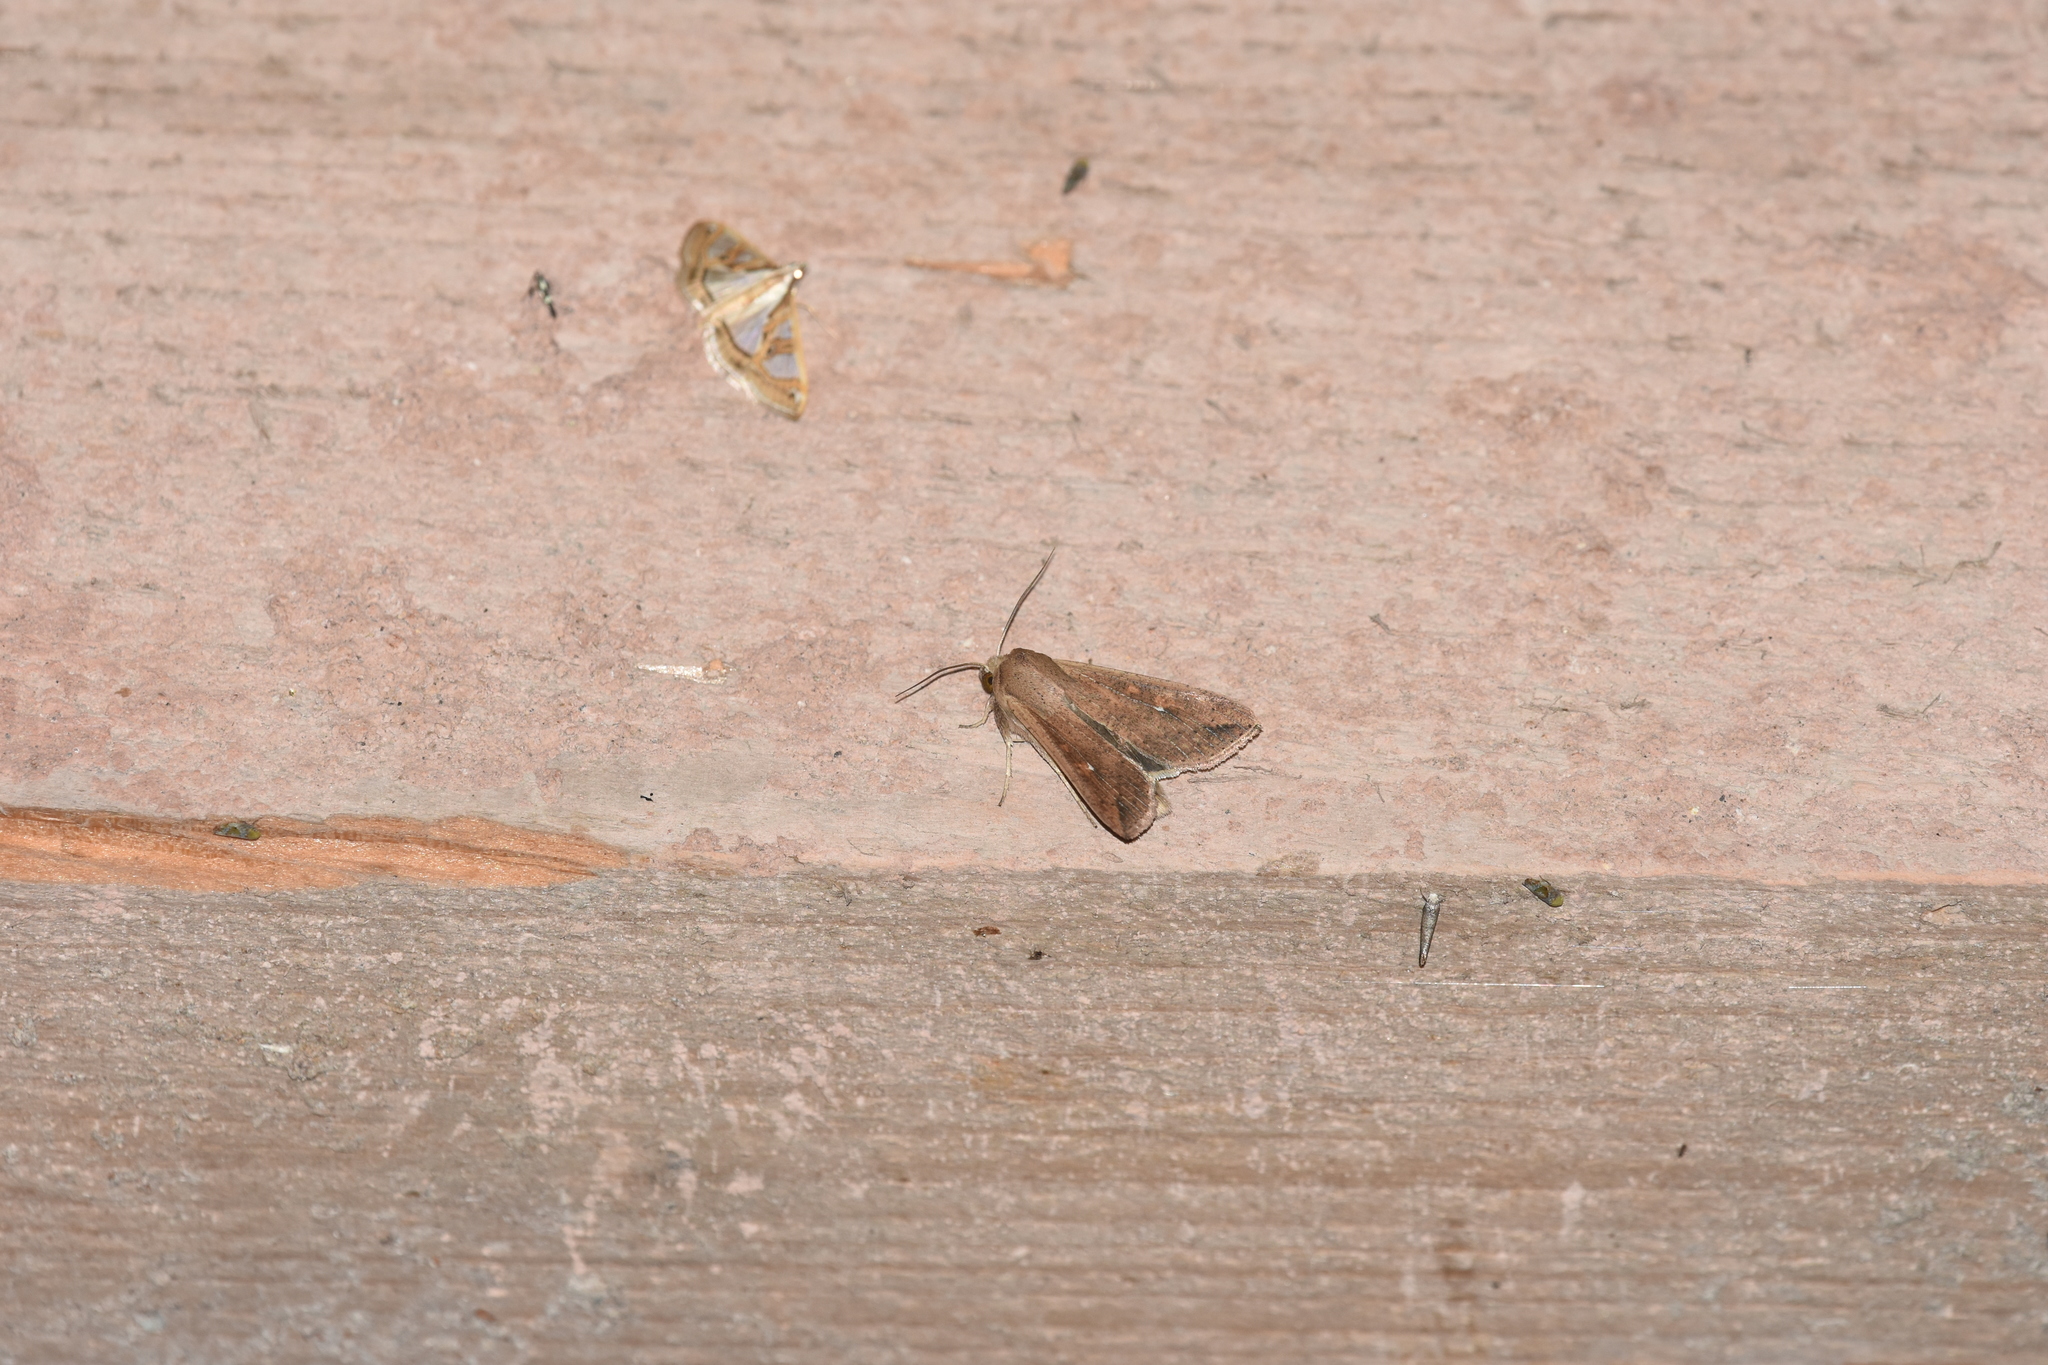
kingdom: Animalia
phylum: Arthropoda
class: Insecta
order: Lepidoptera
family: Noctuidae
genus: Mythimna
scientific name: Mythimna albipuncta
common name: White-point
